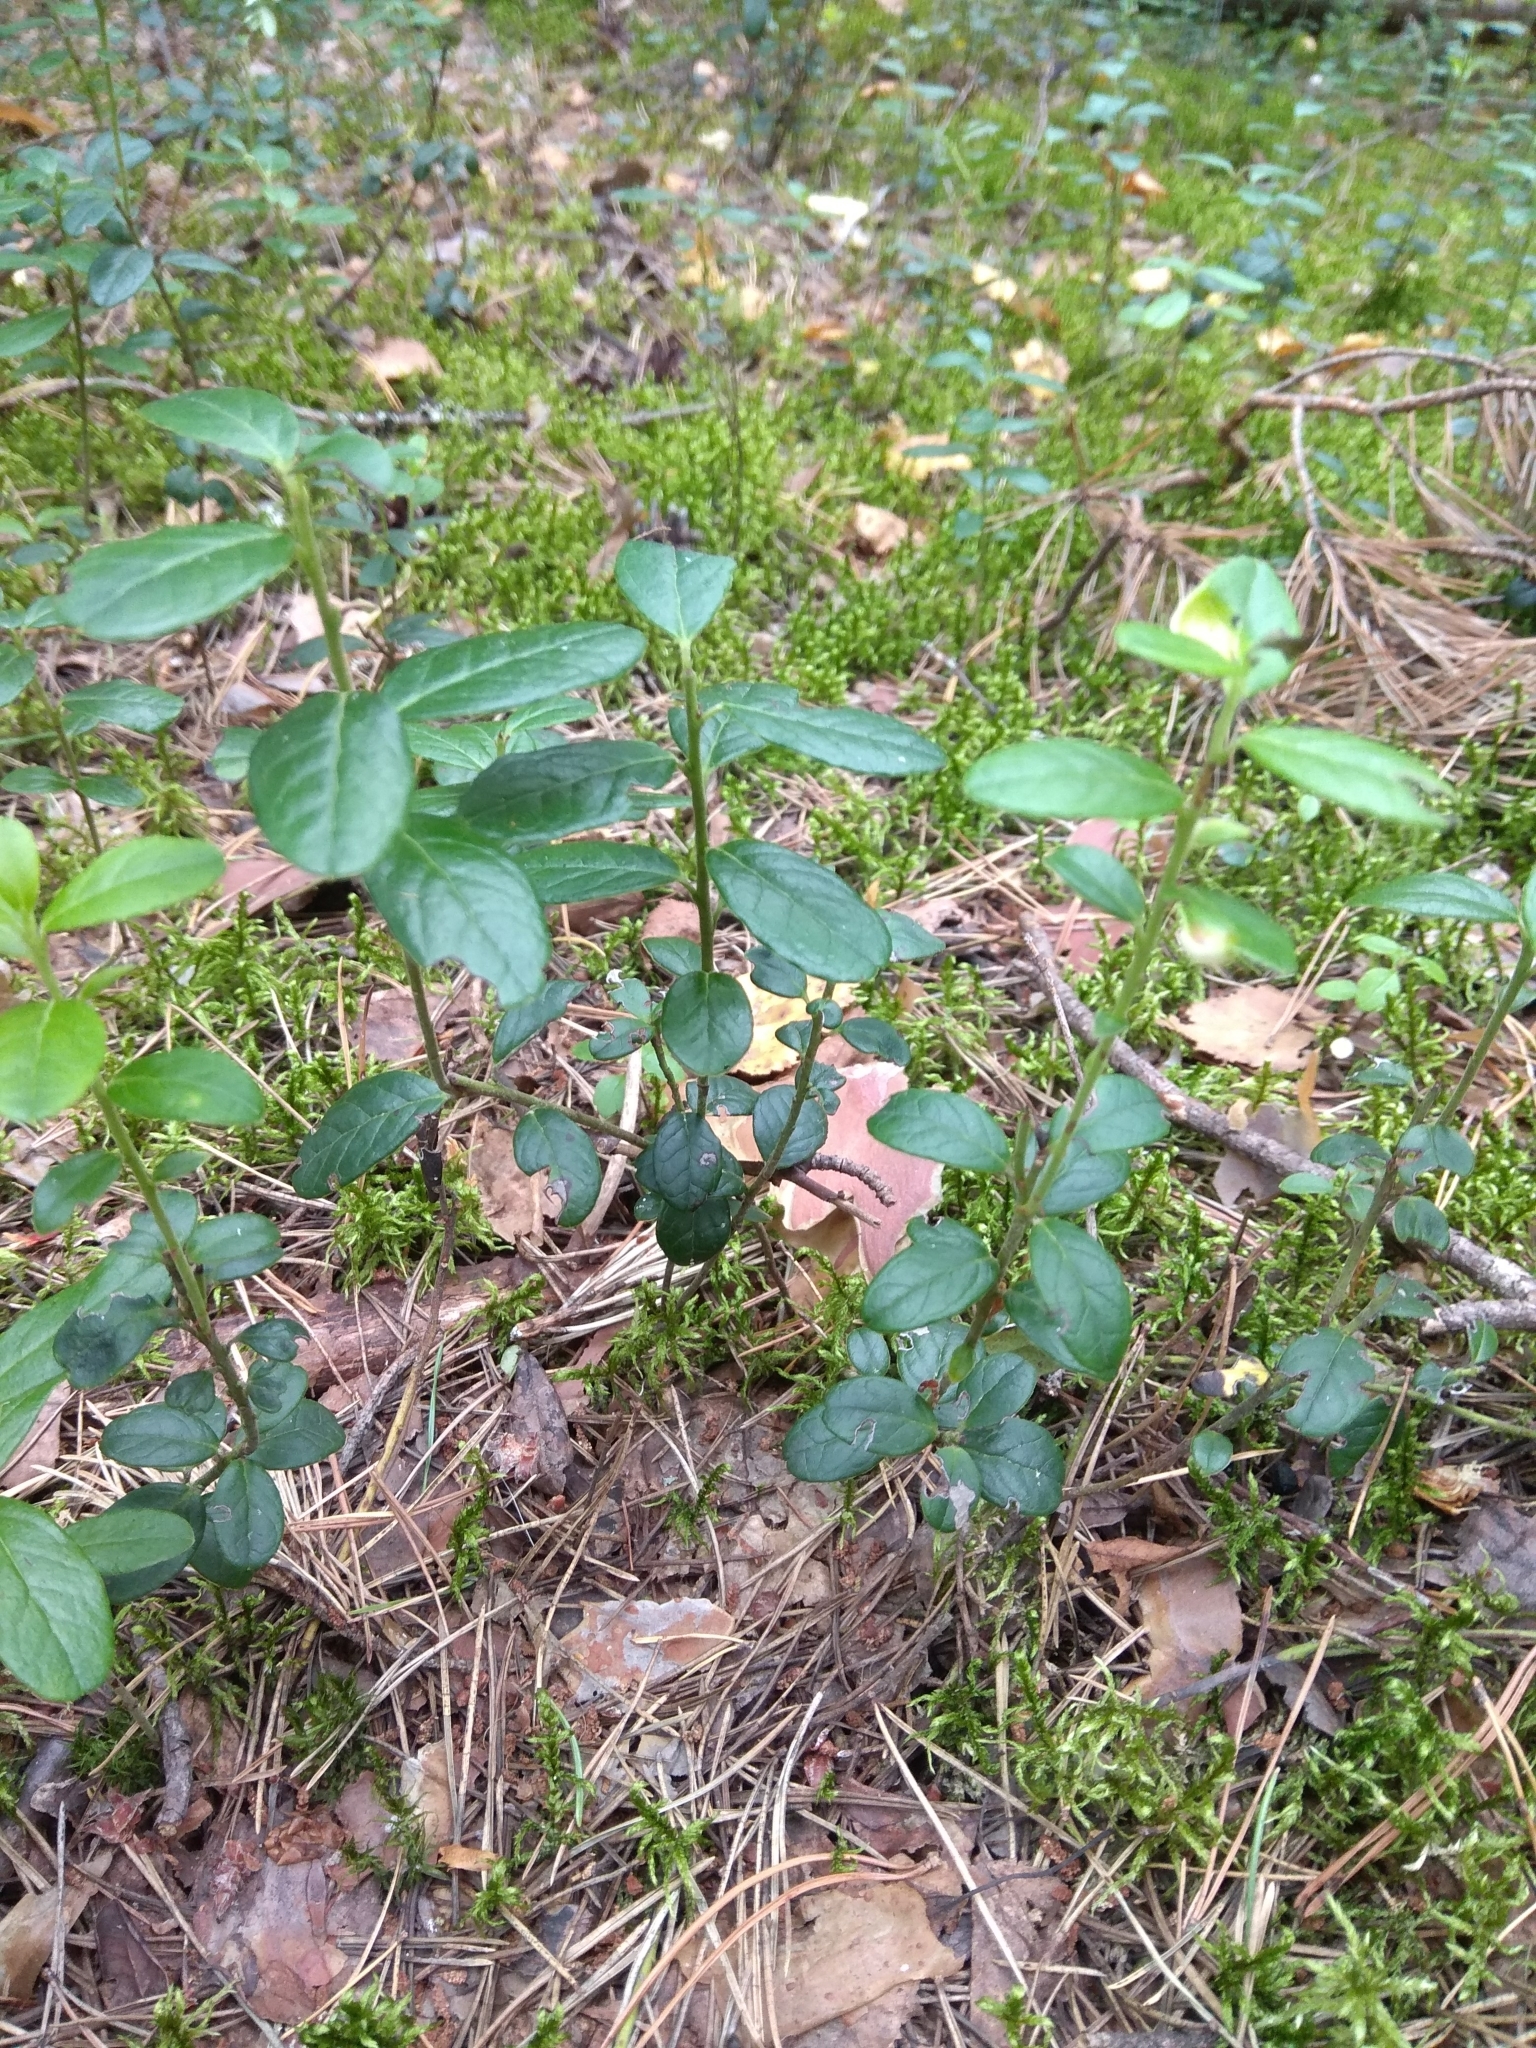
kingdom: Plantae
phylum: Tracheophyta
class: Magnoliopsida
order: Ericales
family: Ericaceae
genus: Vaccinium
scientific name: Vaccinium vitis-idaea
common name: Cowberry
